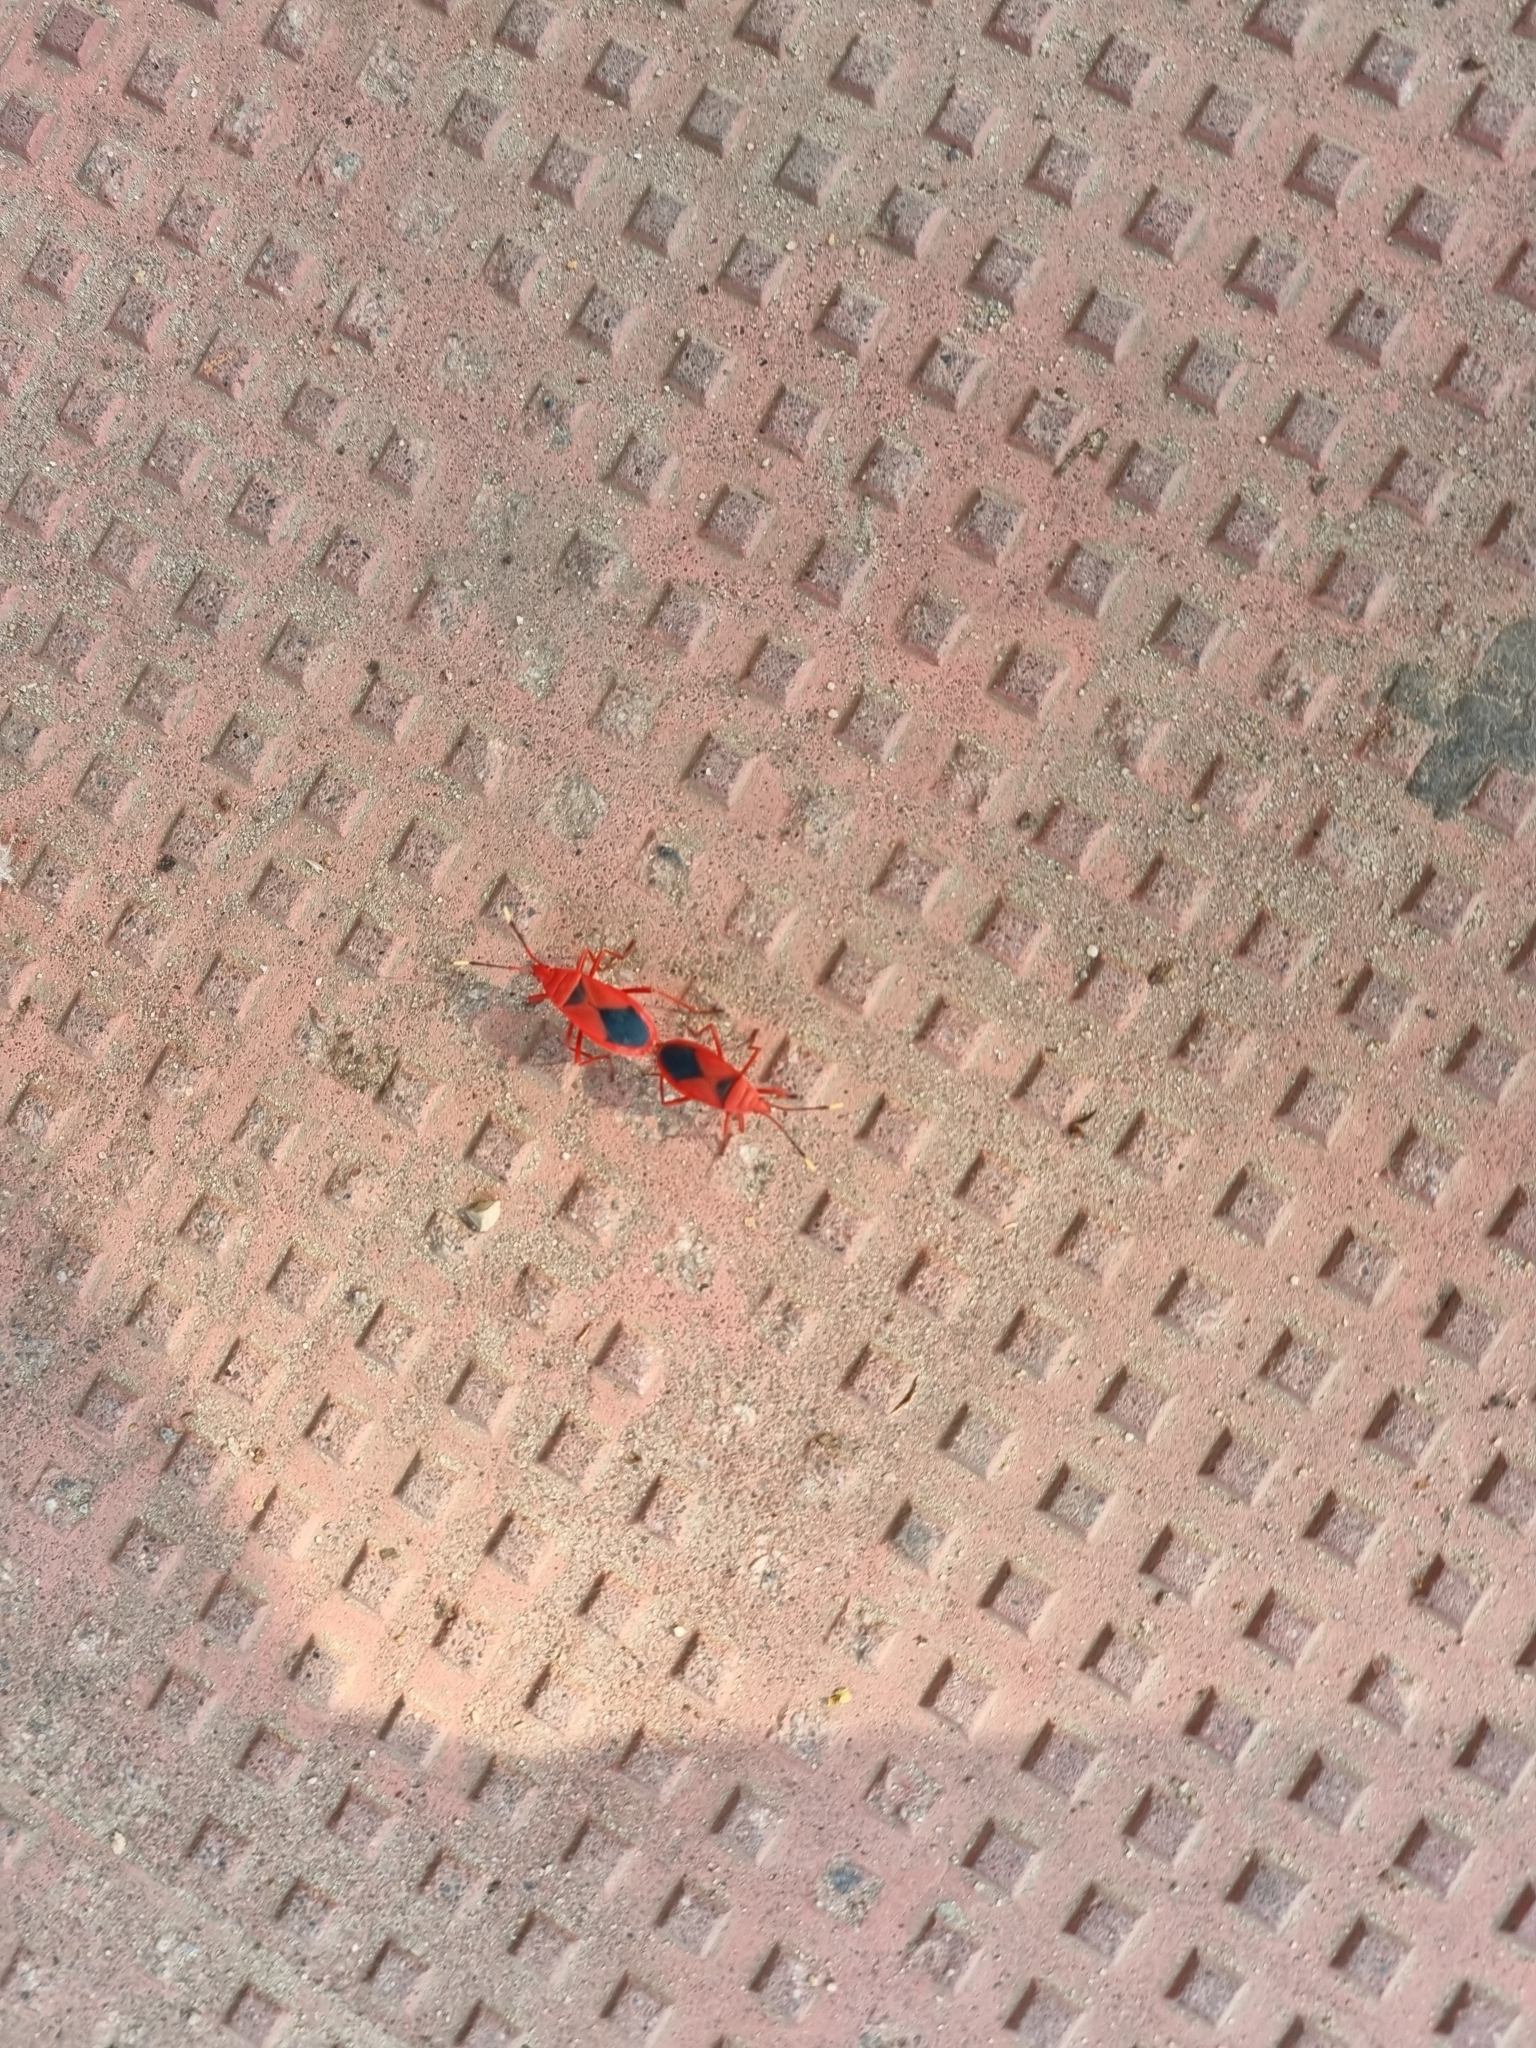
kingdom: Animalia
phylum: Arthropoda
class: Insecta
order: Hemiptera
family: Pyrrhocoridae
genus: Probergrothius
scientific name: Probergrothius
